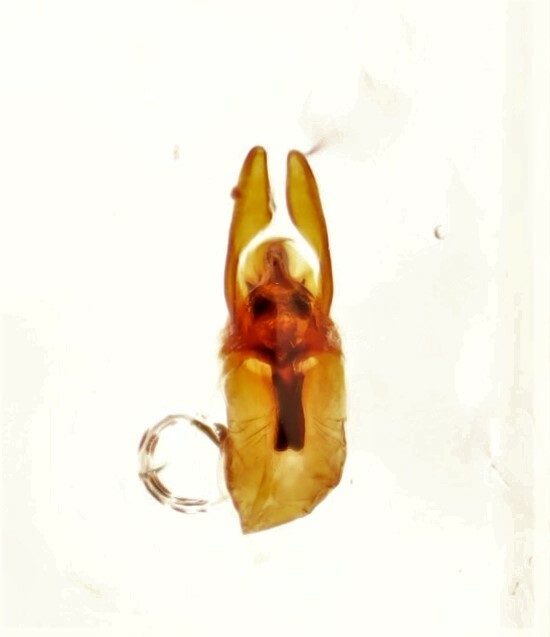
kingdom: Animalia
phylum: Arthropoda
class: Insecta
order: Coleoptera
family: Staphylinidae
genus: Coprophilus
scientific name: Coprophilus striatulus
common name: Rove beetle
